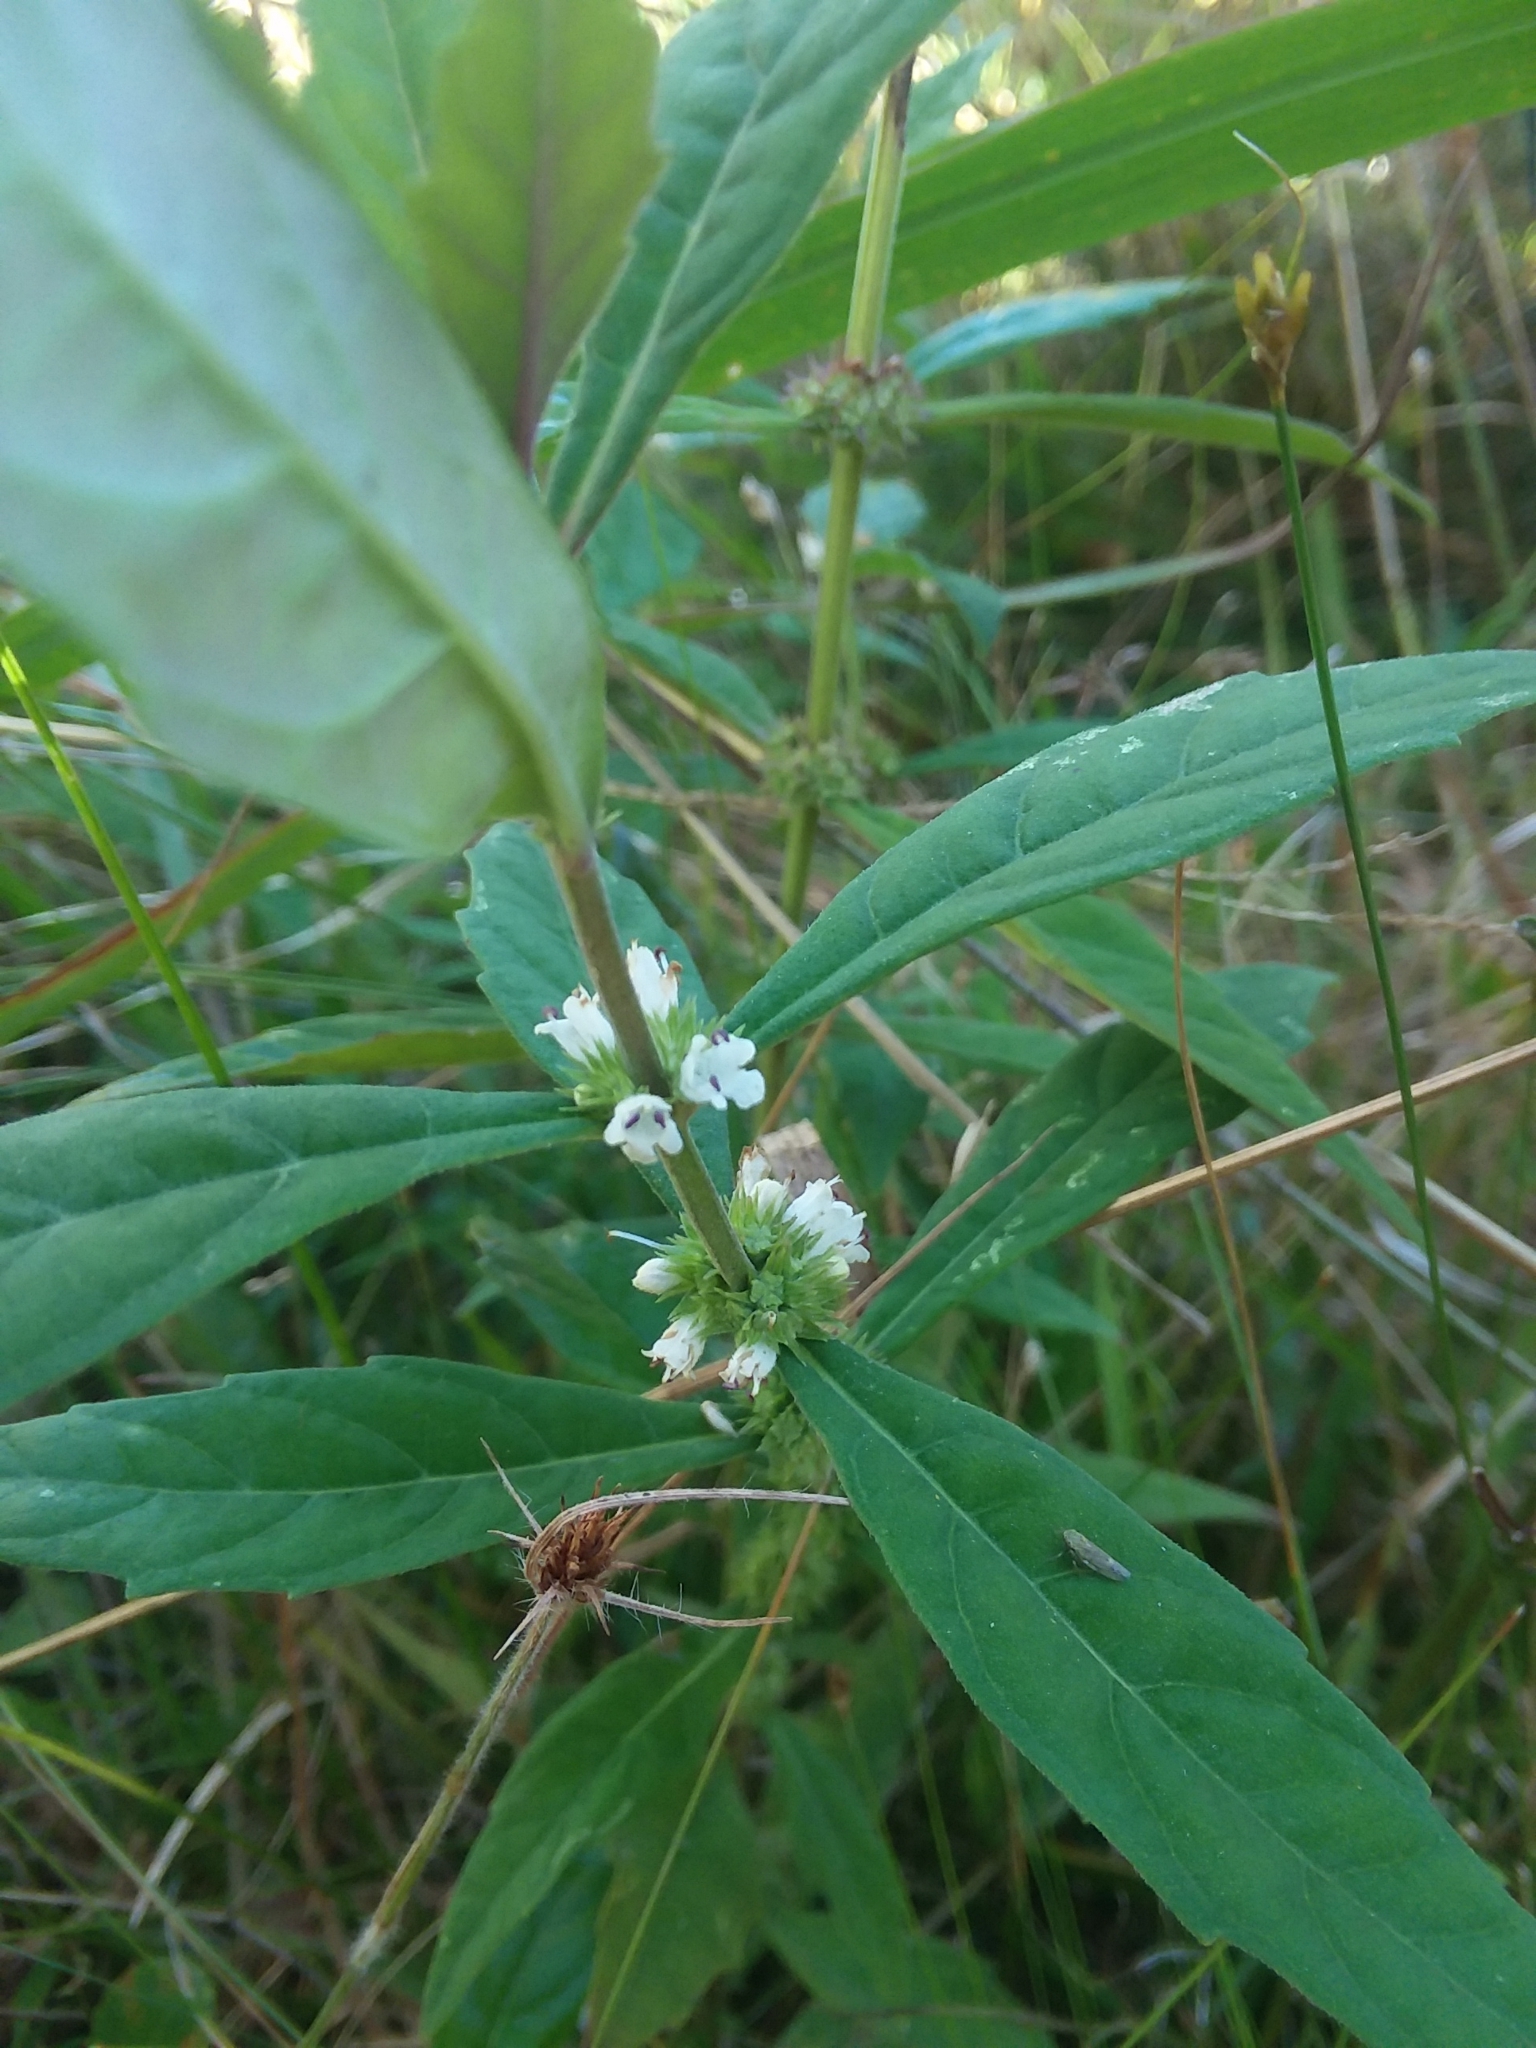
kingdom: Plantae
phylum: Tracheophyta
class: Magnoliopsida
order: Lamiales
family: Lamiaceae
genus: Lycopus
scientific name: Lycopus angustifolius
